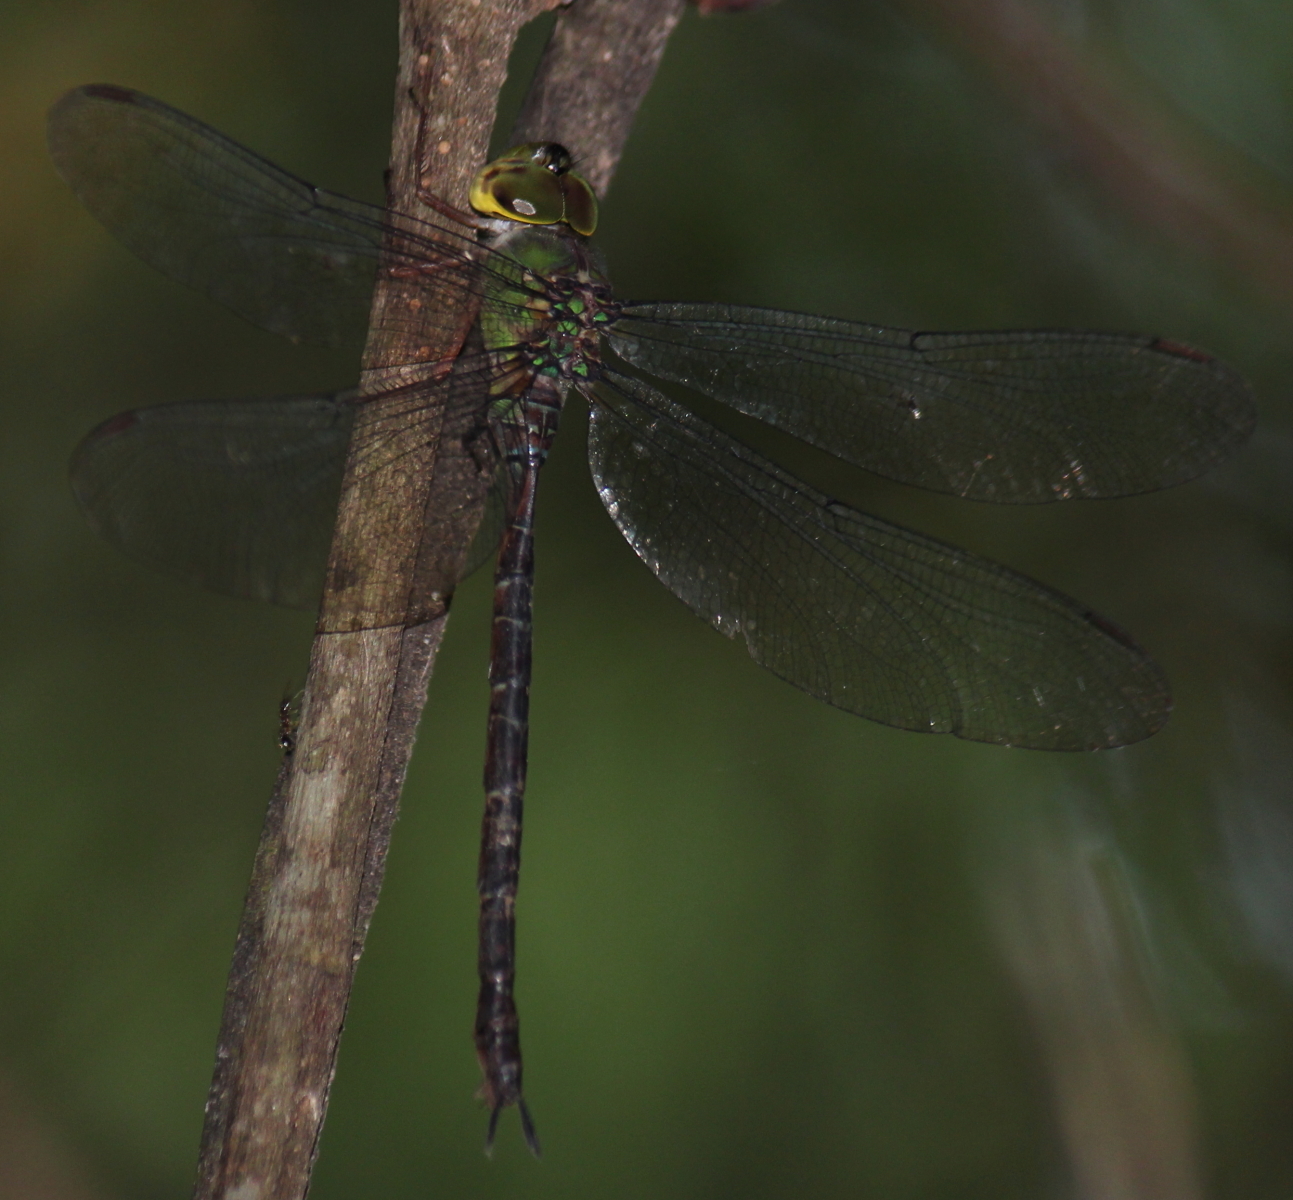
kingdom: Animalia
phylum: Arthropoda
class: Insecta
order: Odonata
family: Aeshnidae
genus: Gynacantha
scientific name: Gynacantha usambarica
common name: Eastern duskhawker
